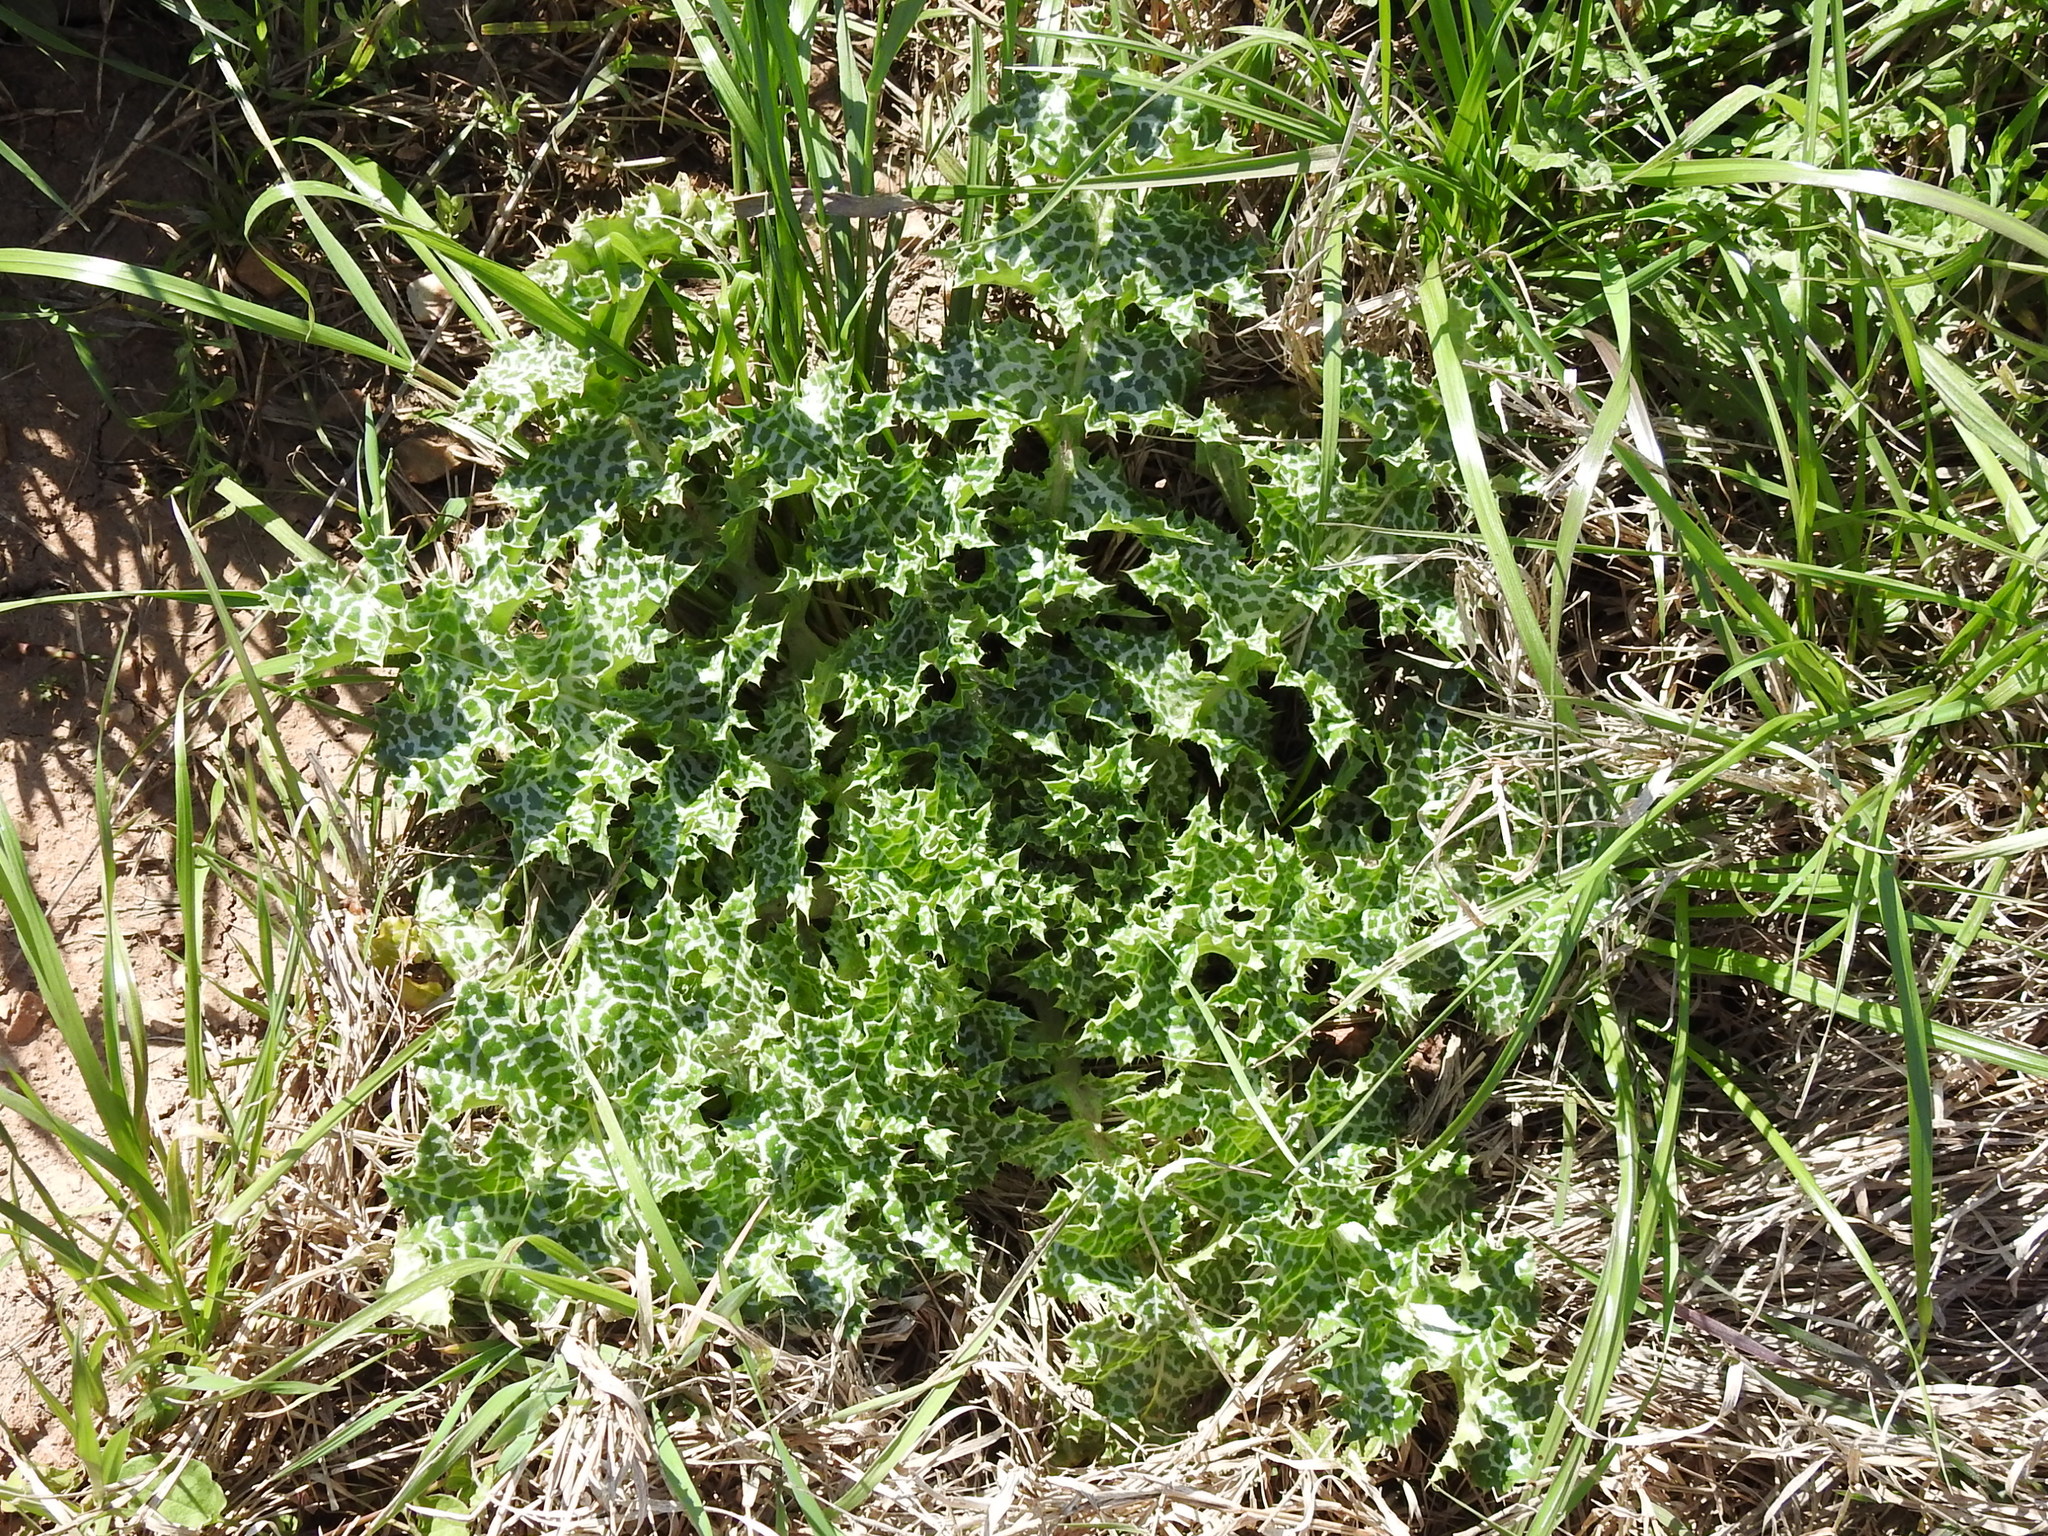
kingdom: Plantae
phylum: Tracheophyta
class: Magnoliopsida
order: Asterales
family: Asteraceae
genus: Silybum
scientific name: Silybum marianum
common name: Milk thistle
